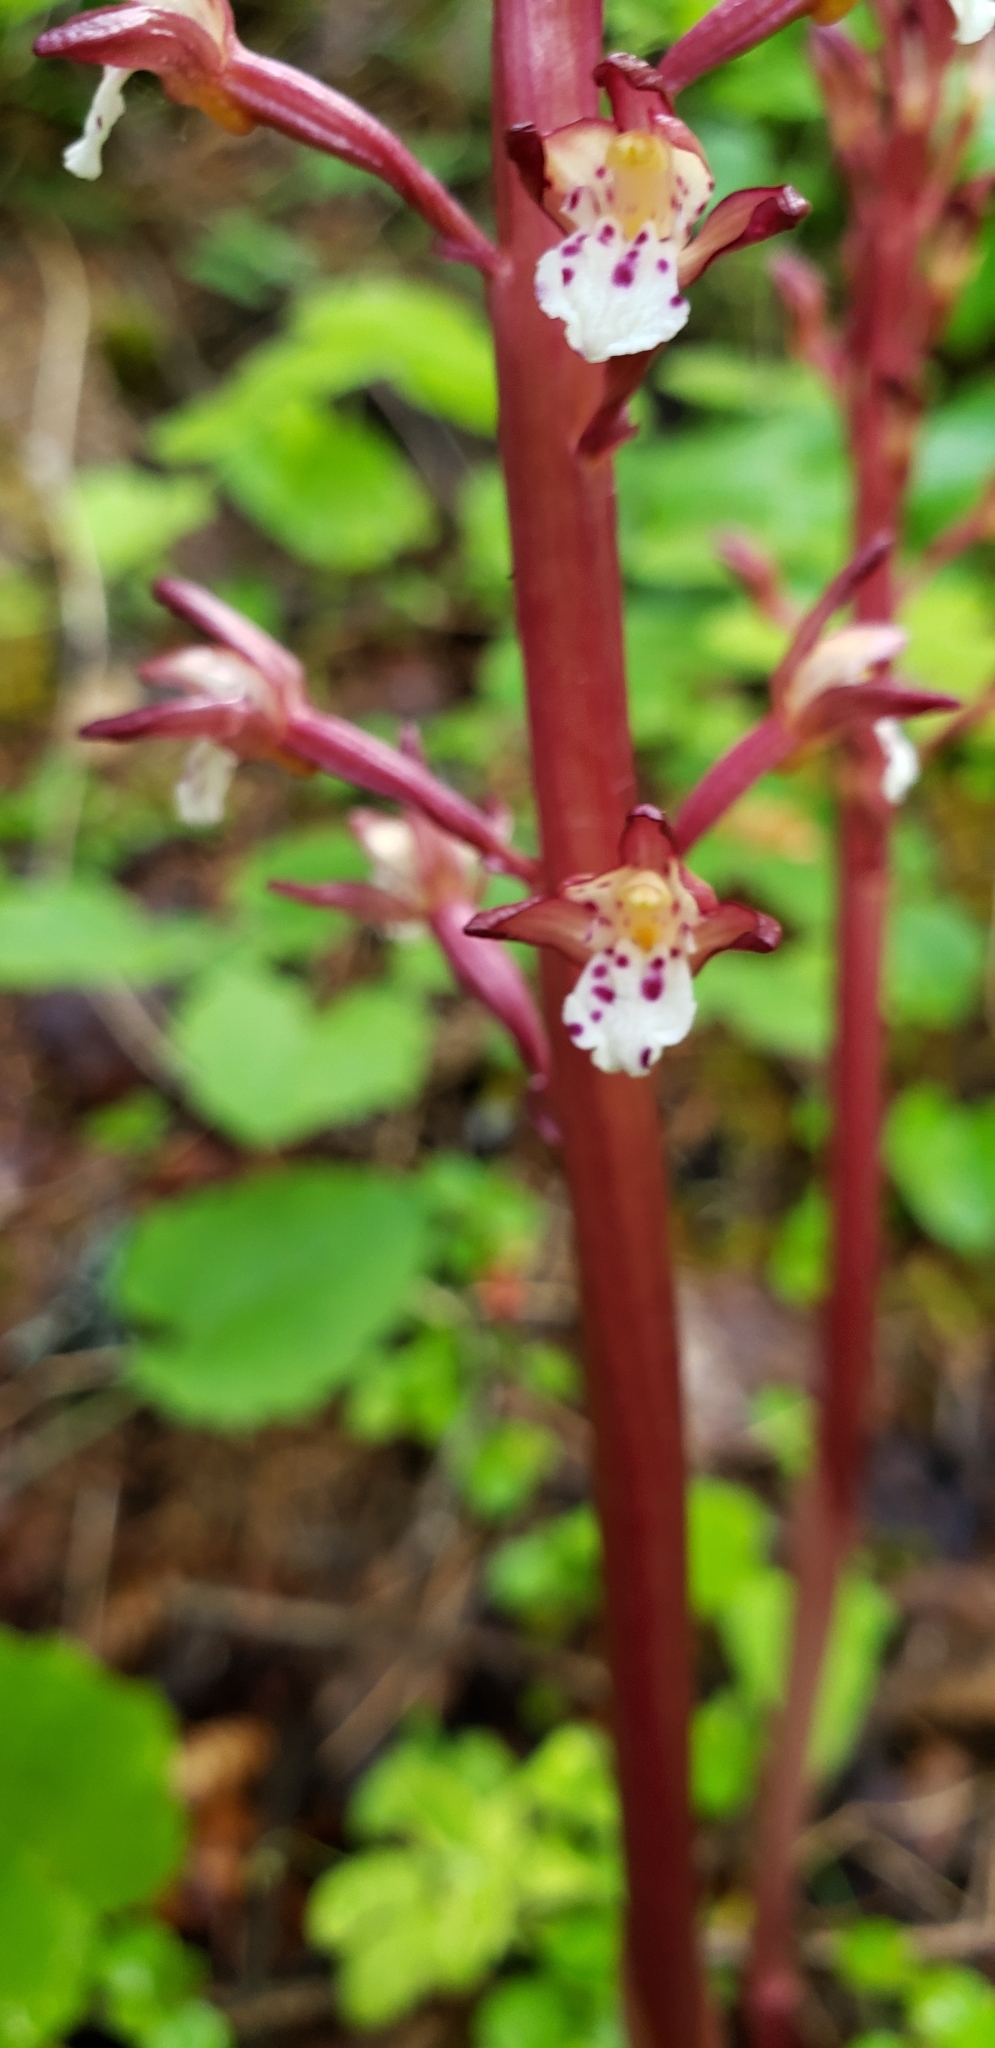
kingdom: Plantae
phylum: Tracheophyta
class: Liliopsida
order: Asparagales
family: Orchidaceae
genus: Corallorhiza
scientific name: Corallorhiza maculata
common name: Spotted coralroot
